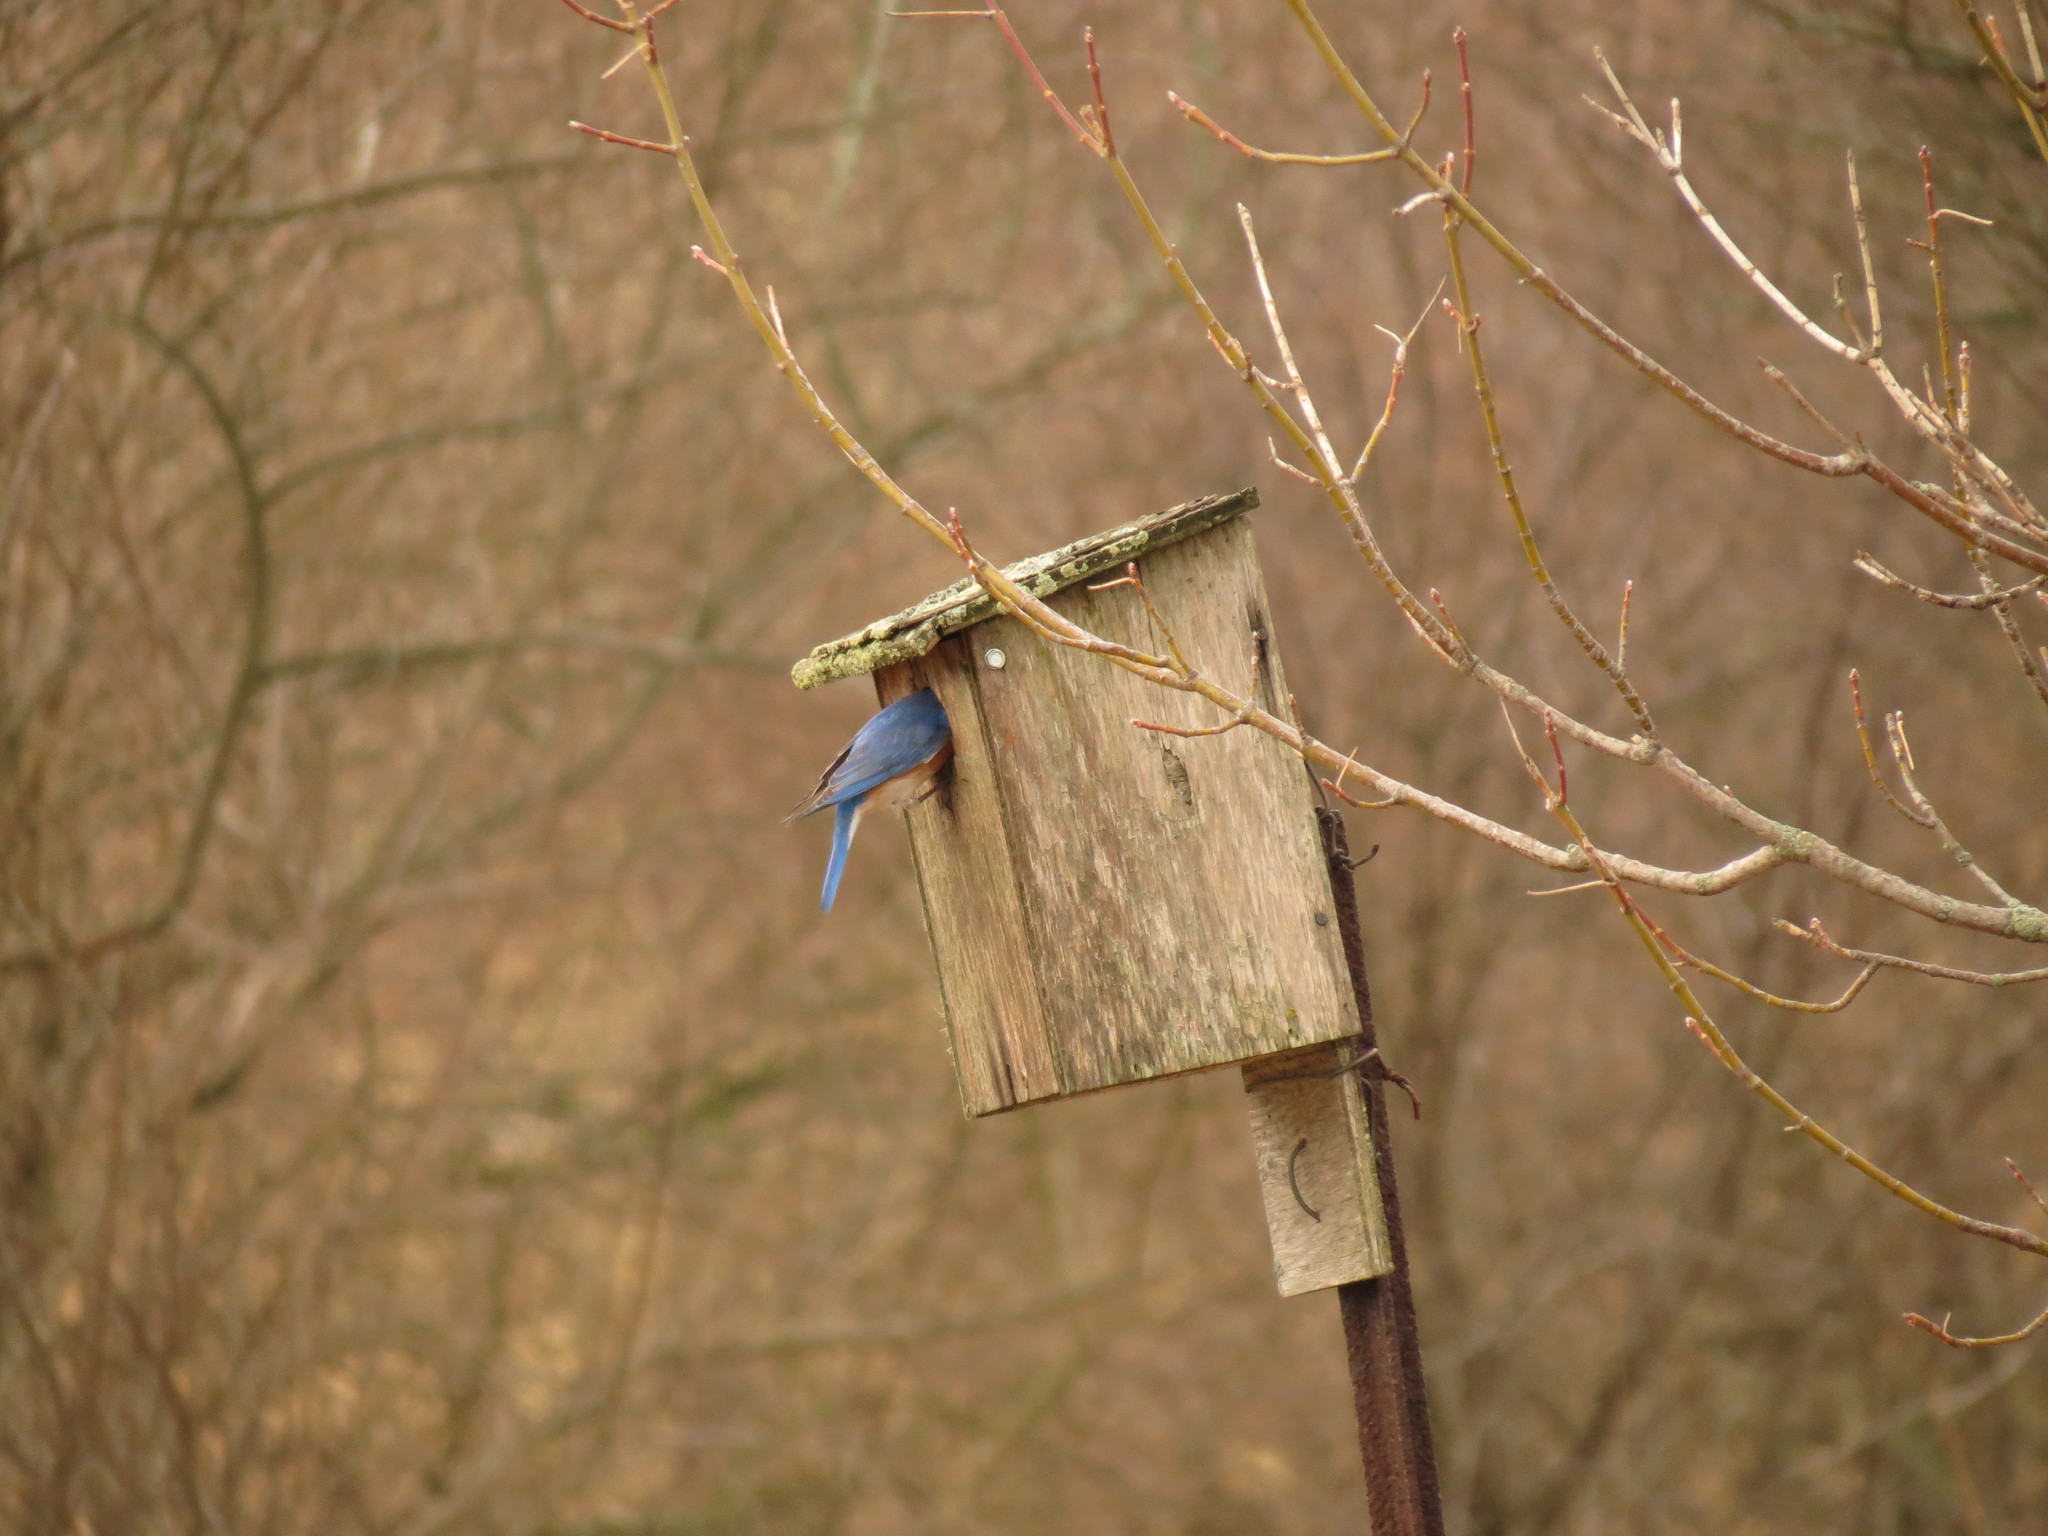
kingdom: Animalia
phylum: Chordata
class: Aves
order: Passeriformes
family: Turdidae
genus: Sialia
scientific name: Sialia sialis
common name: Eastern bluebird
